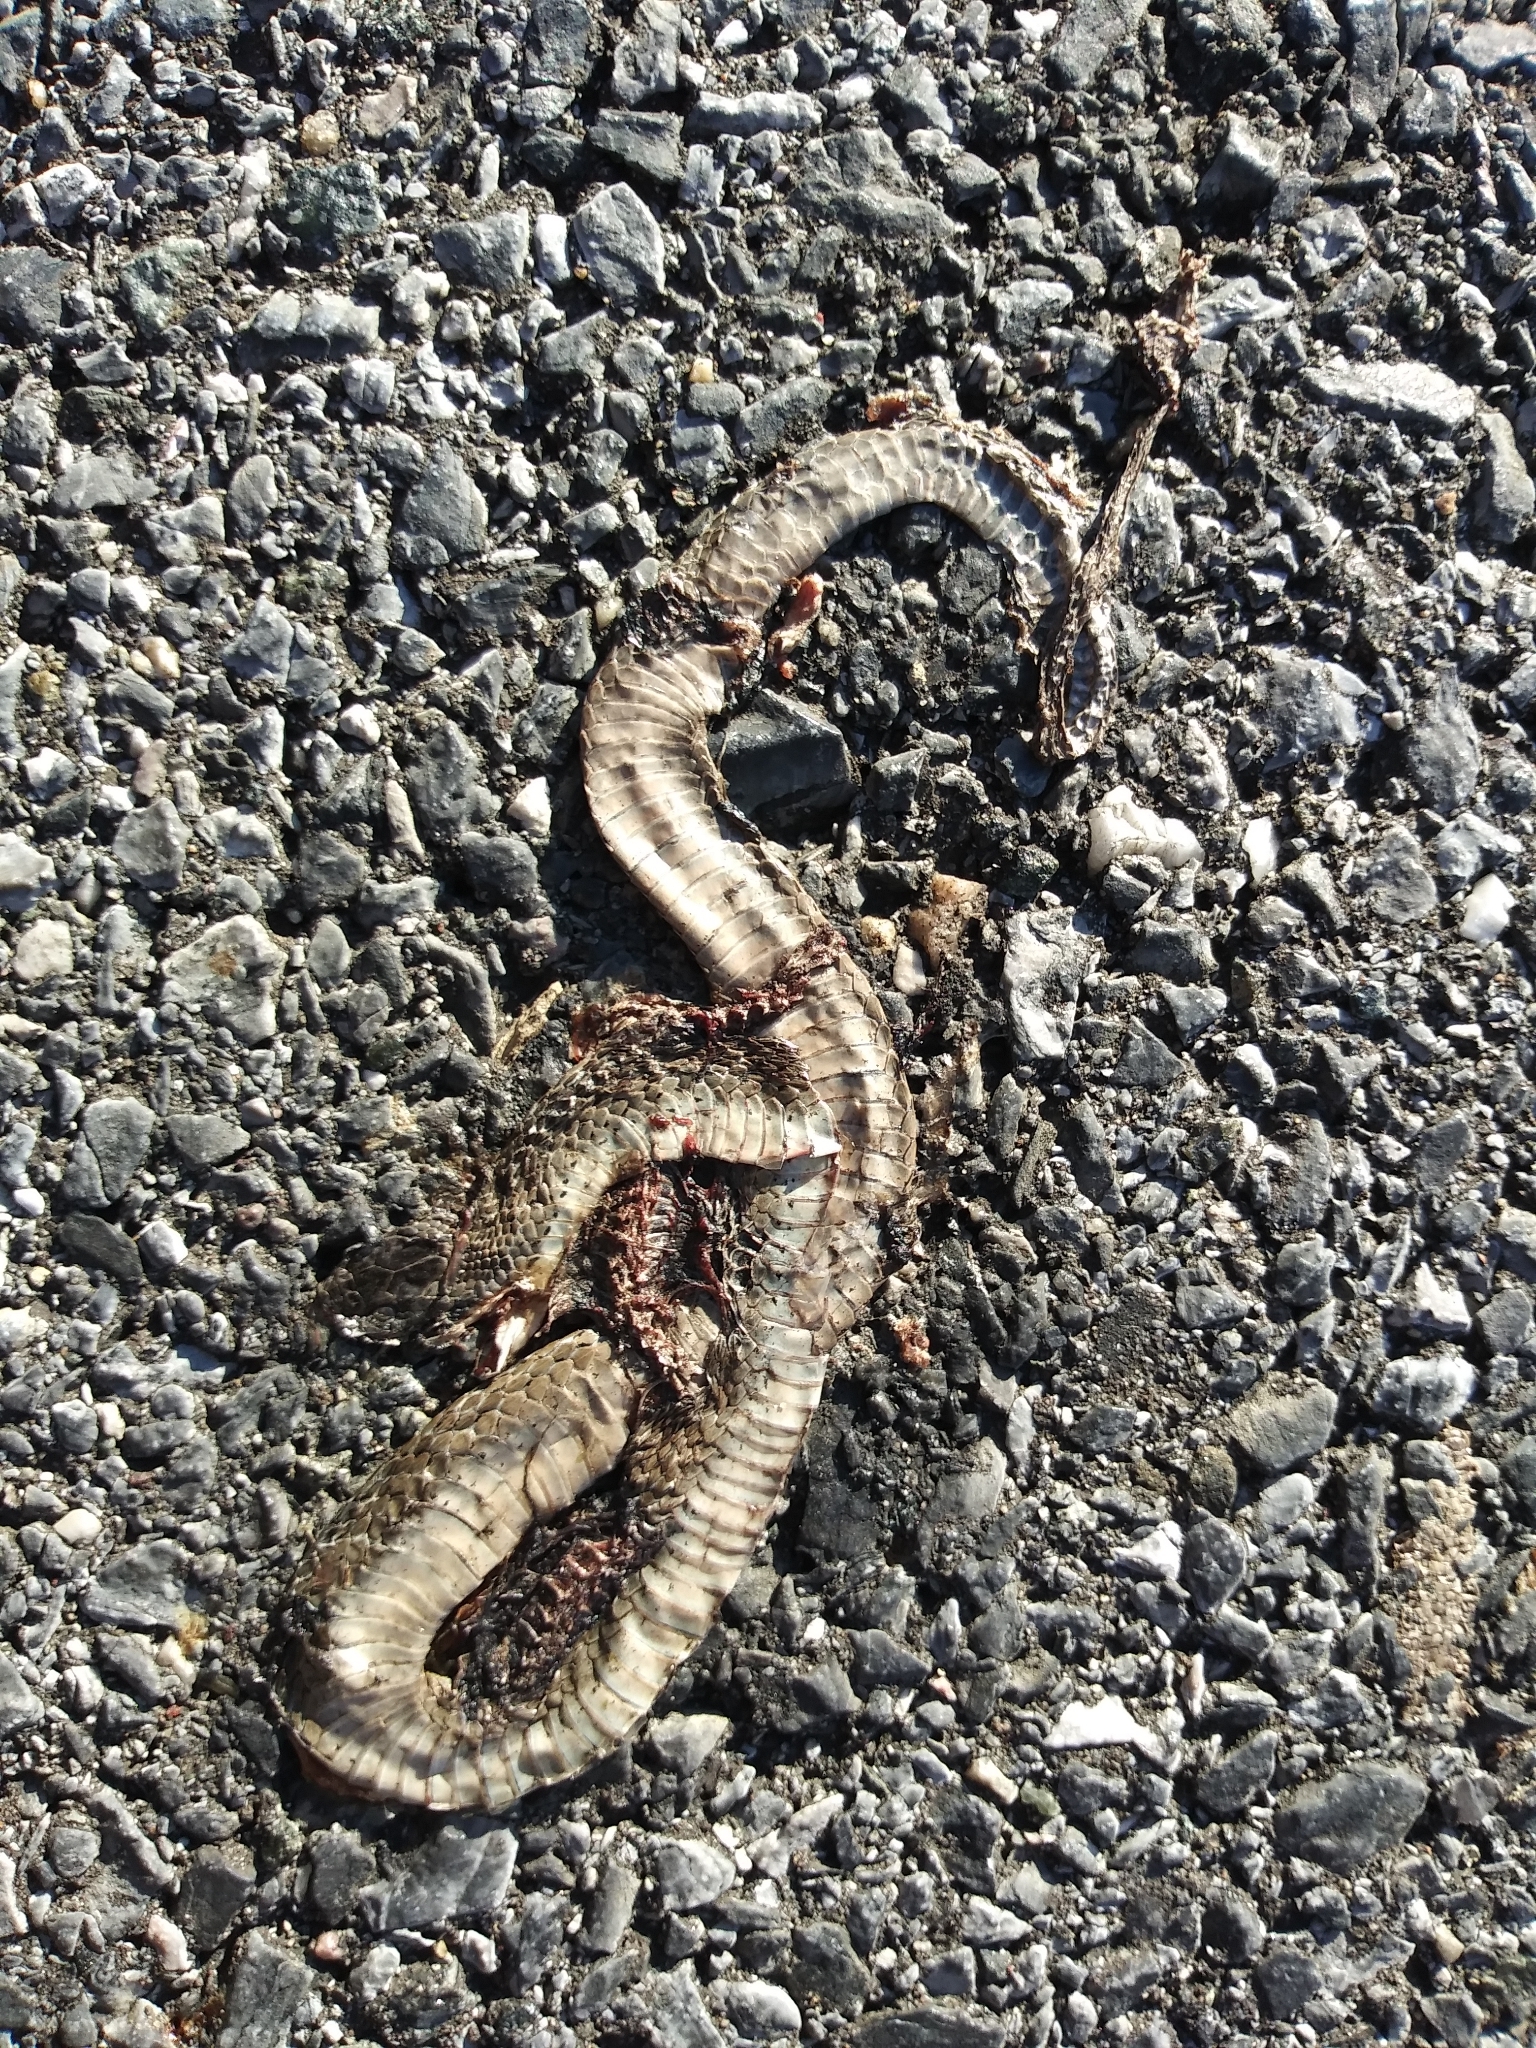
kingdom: Animalia
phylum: Chordata
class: Squamata
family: Colubridae
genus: Storeria
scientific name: Storeria dekayi
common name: (dekay’s) brown snake
